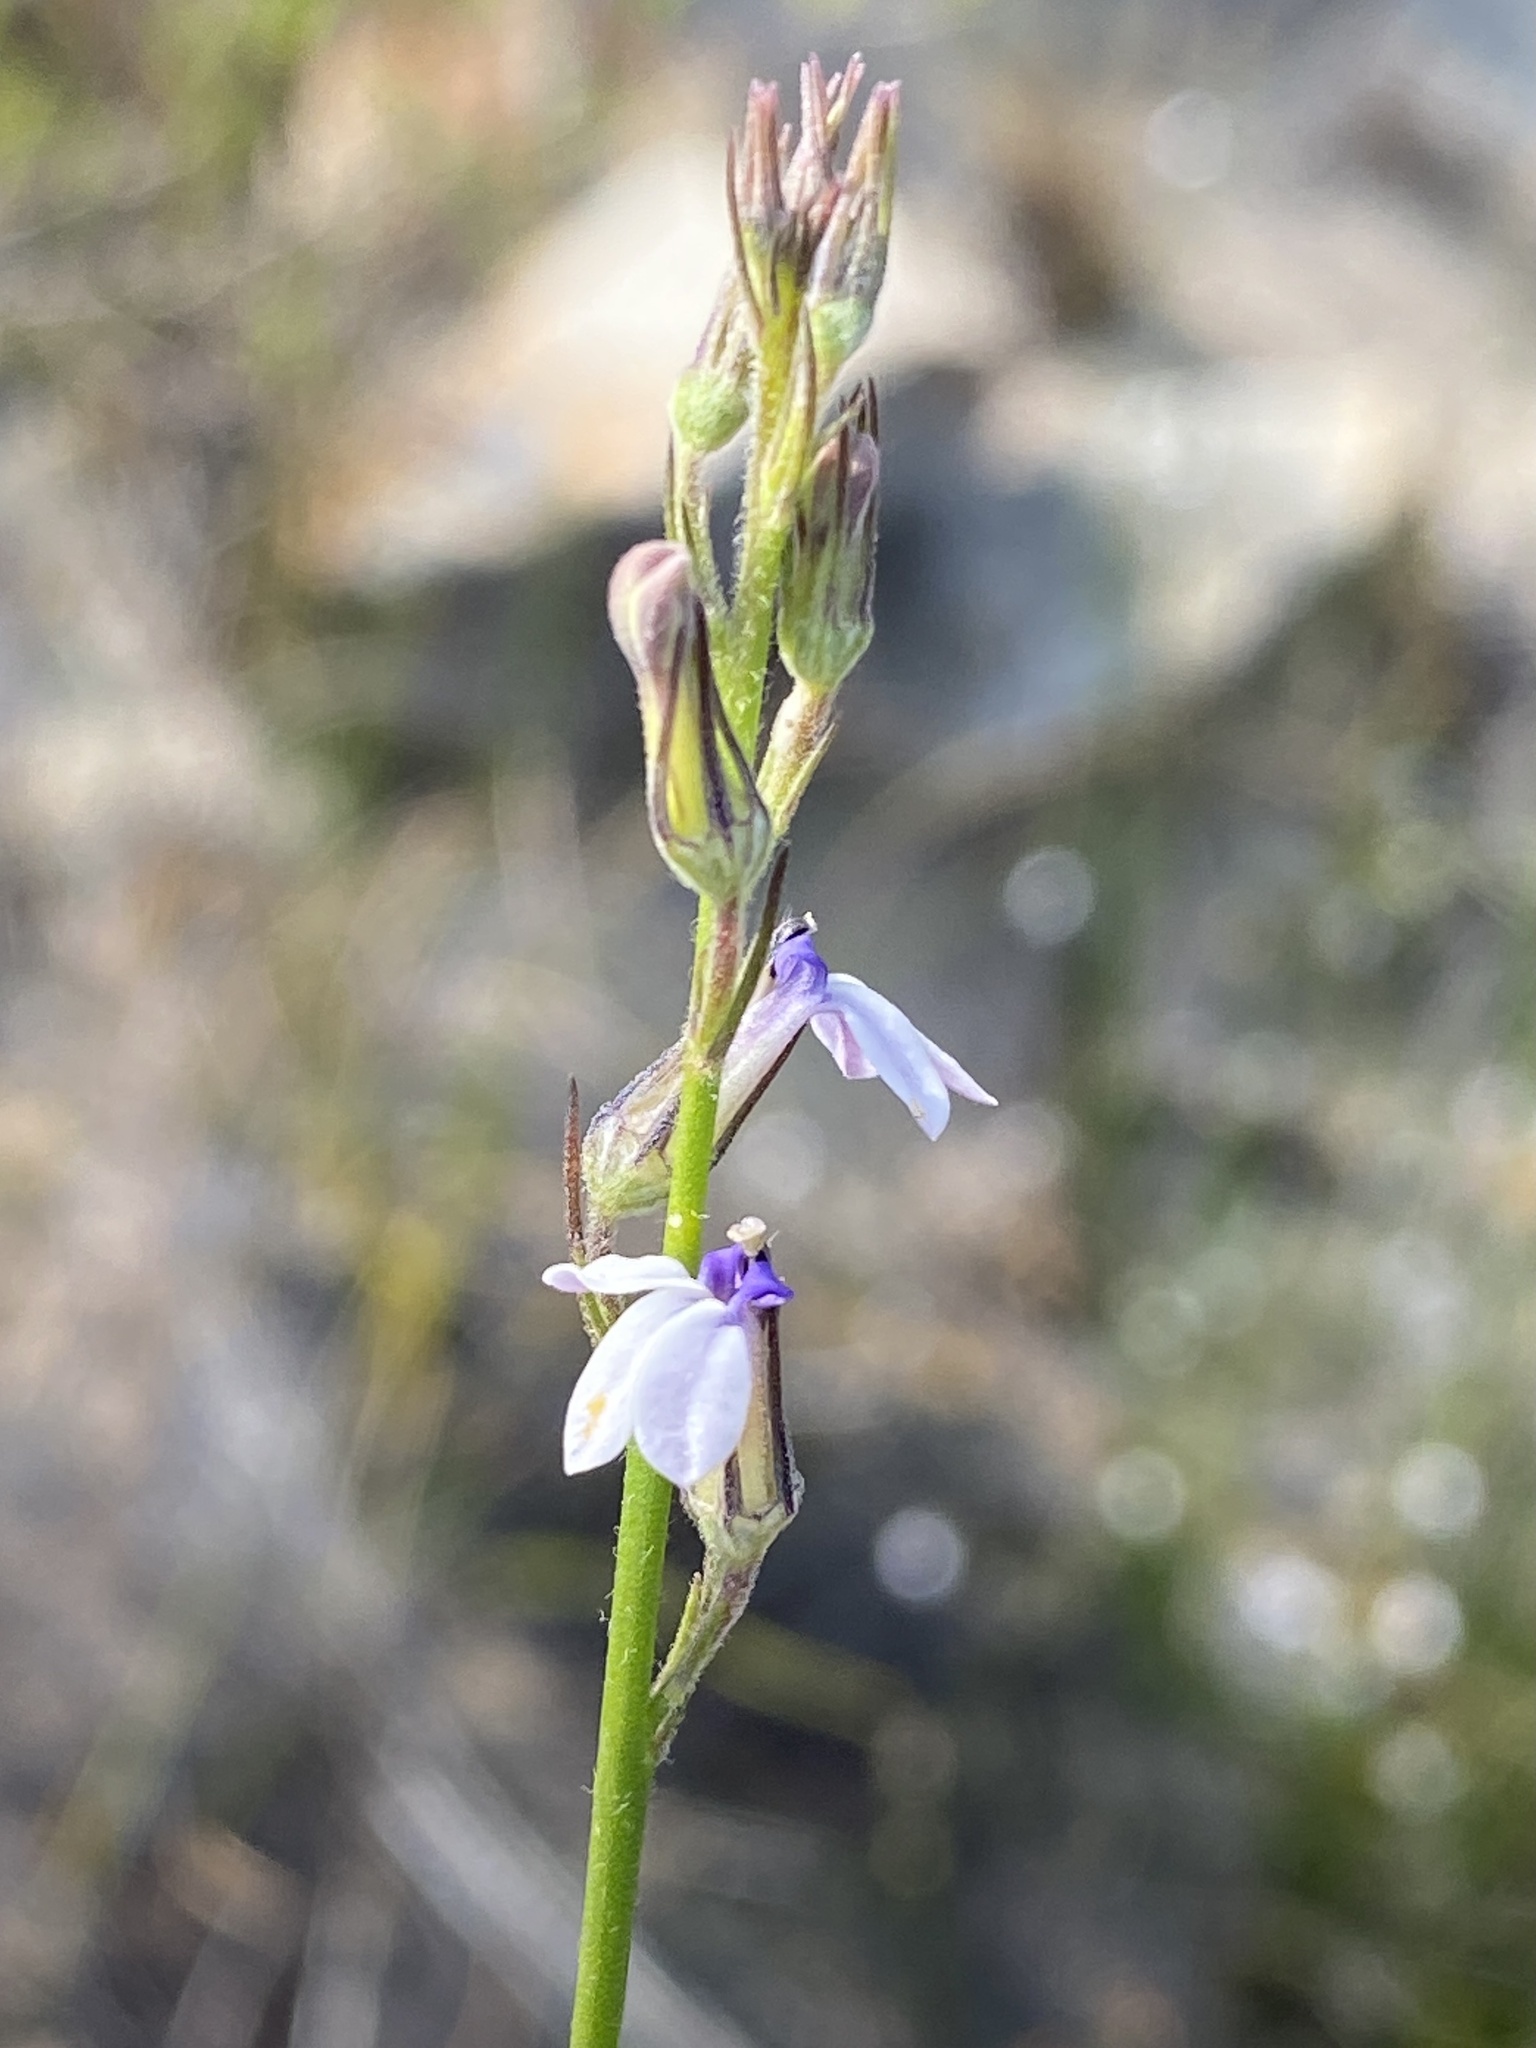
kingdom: Plantae
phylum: Tracheophyta
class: Magnoliopsida
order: Asterales
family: Campanulaceae
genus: Lobelia
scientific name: Lobelia linearis
